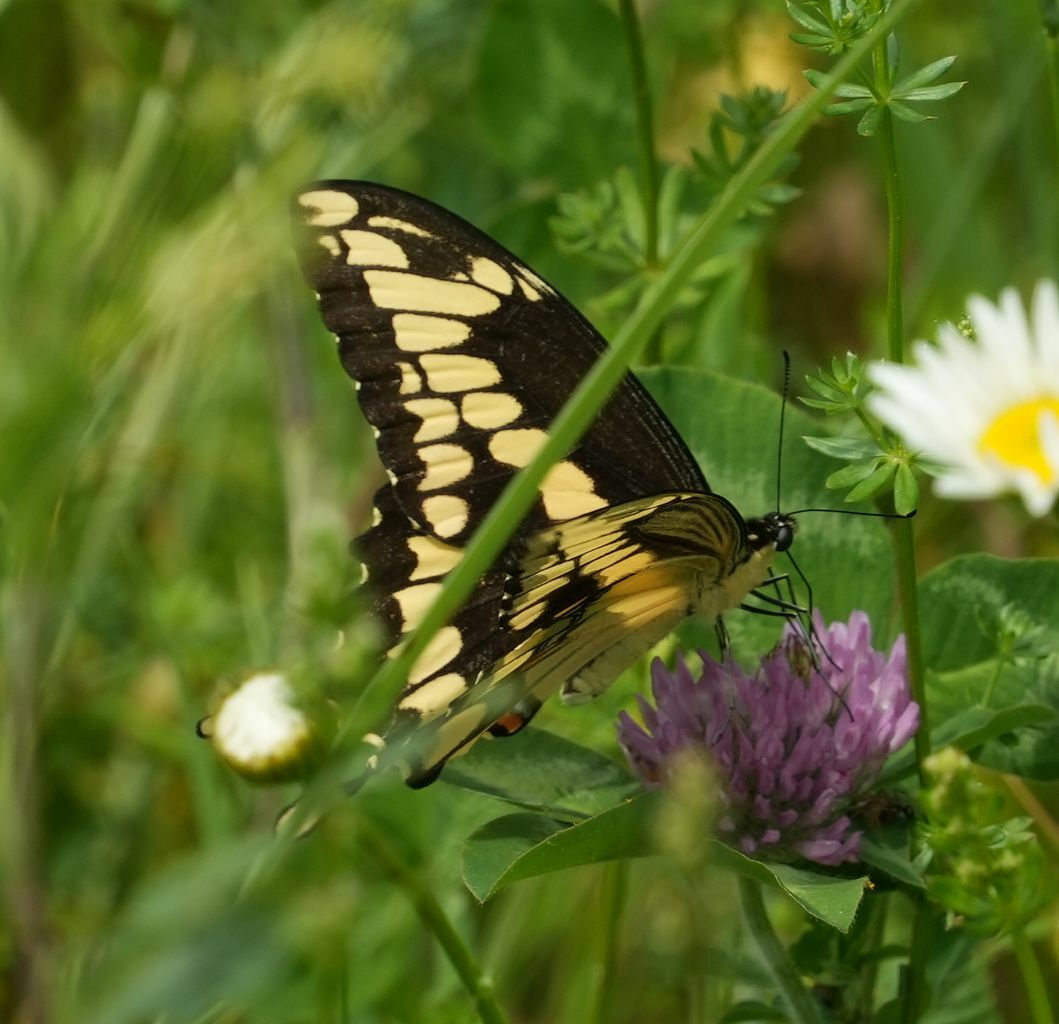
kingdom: Animalia
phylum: Arthropoda
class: Insecta
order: Lepidoptera
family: Papilionidae
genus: Papilio
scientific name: Papilio cresphontes
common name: Giant swallowtail
